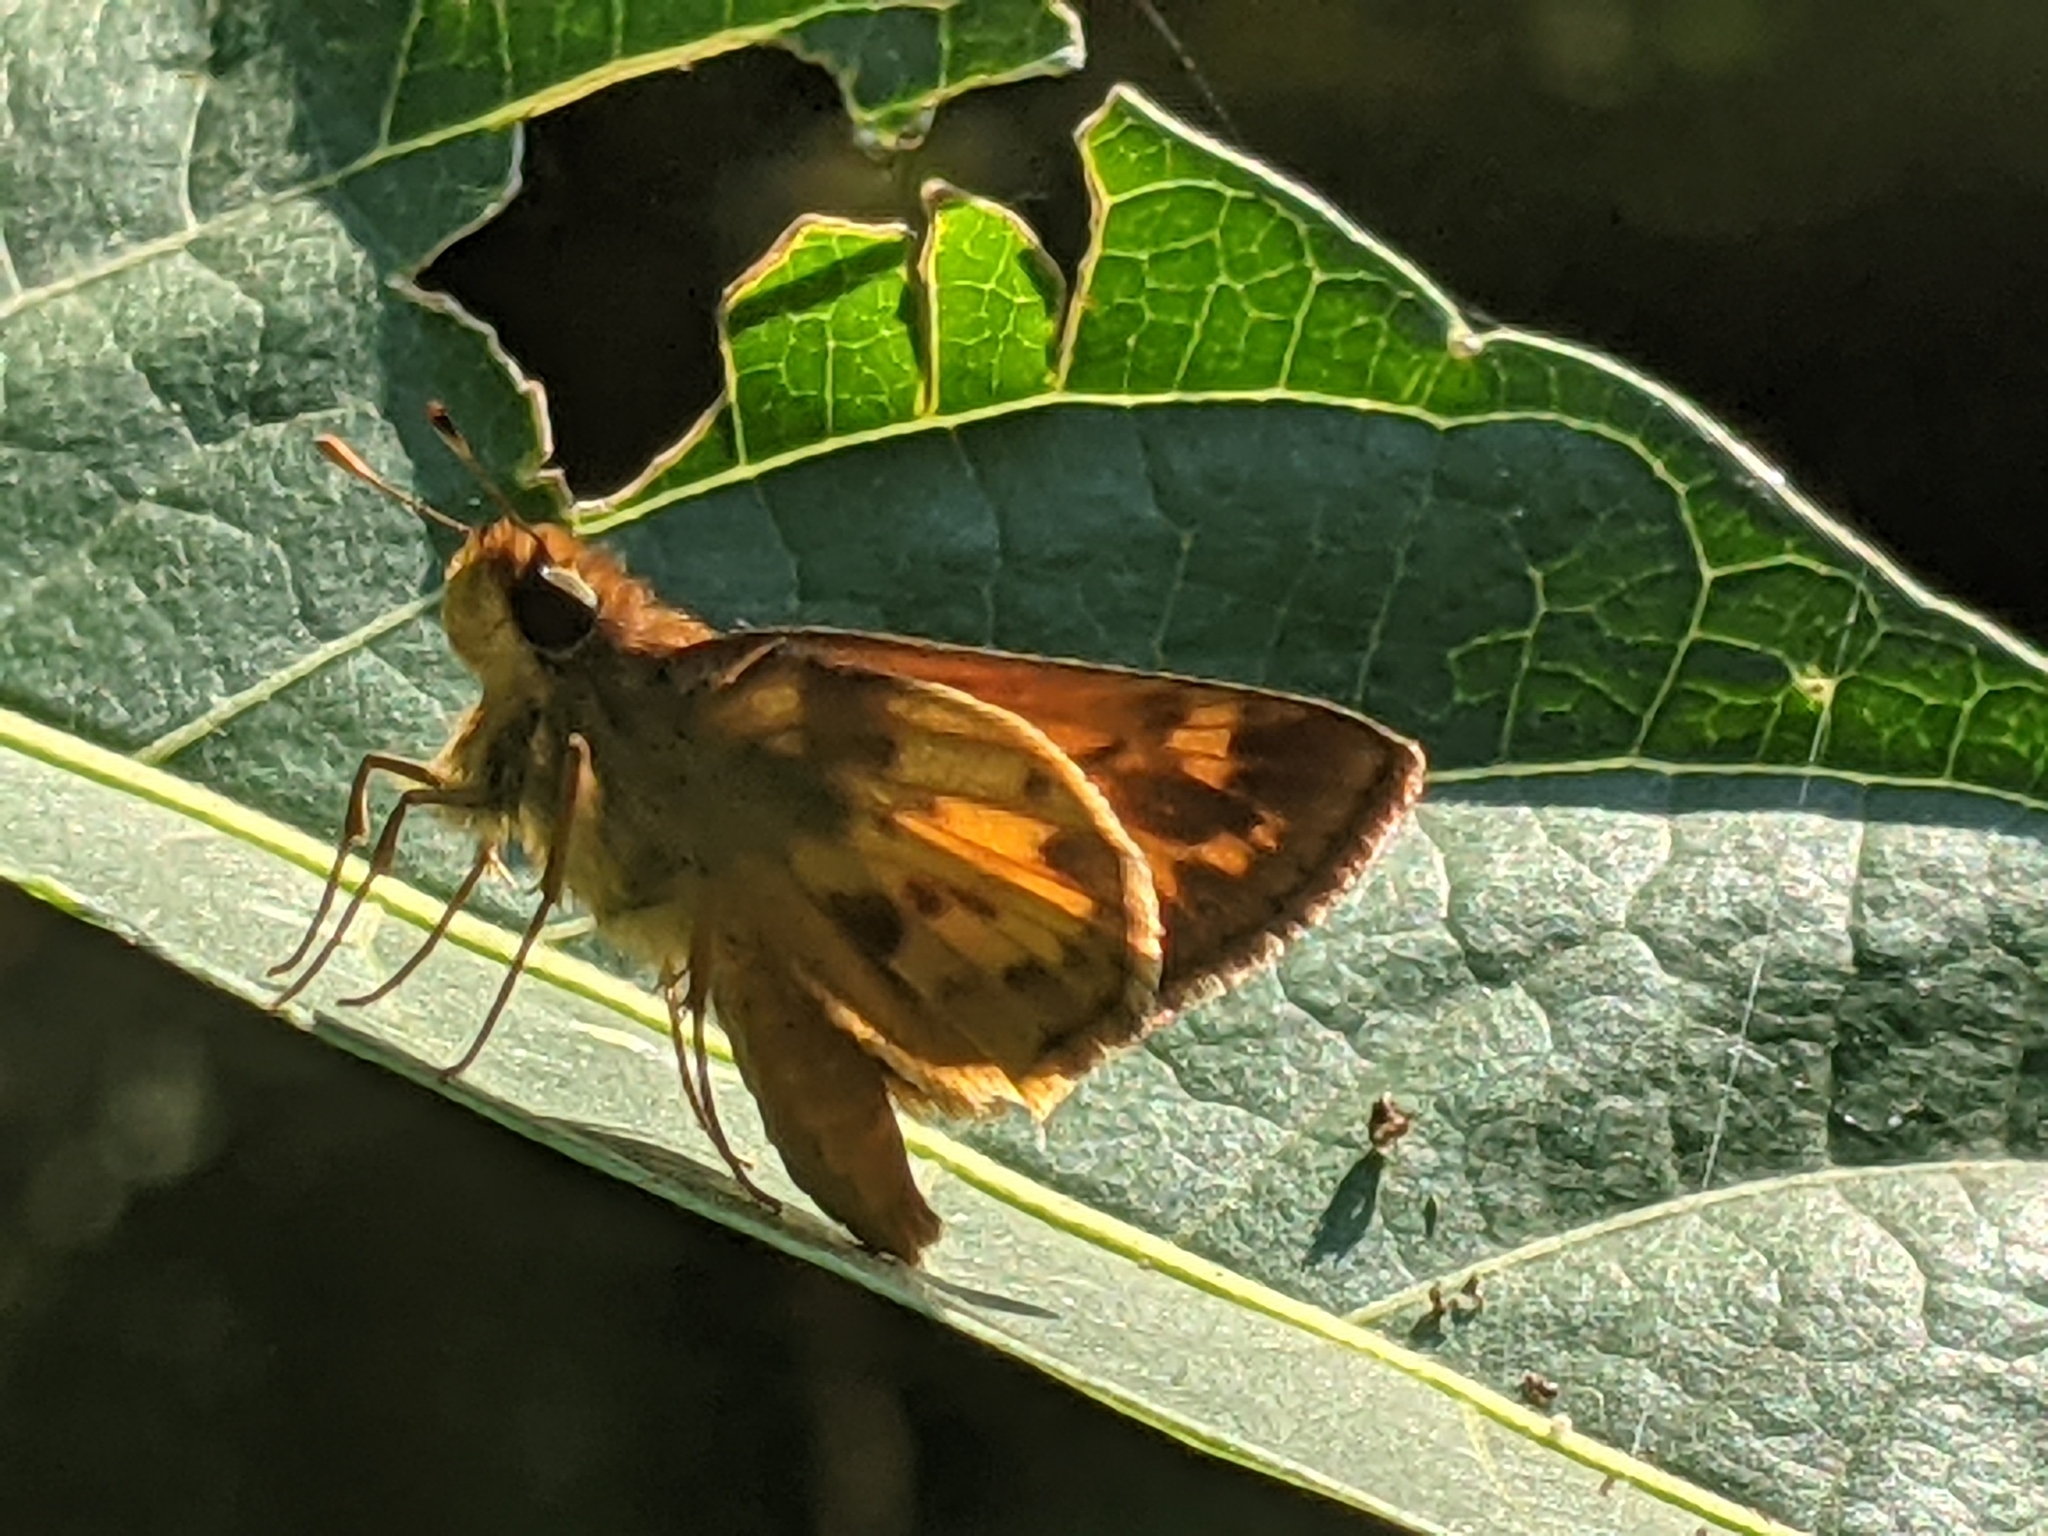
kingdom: Animalia
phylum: Arthropoda
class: Insecta
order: Lepidoptera
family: Hesperiidae
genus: Lon
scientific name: Lon zabulon
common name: Zabulon skipper
